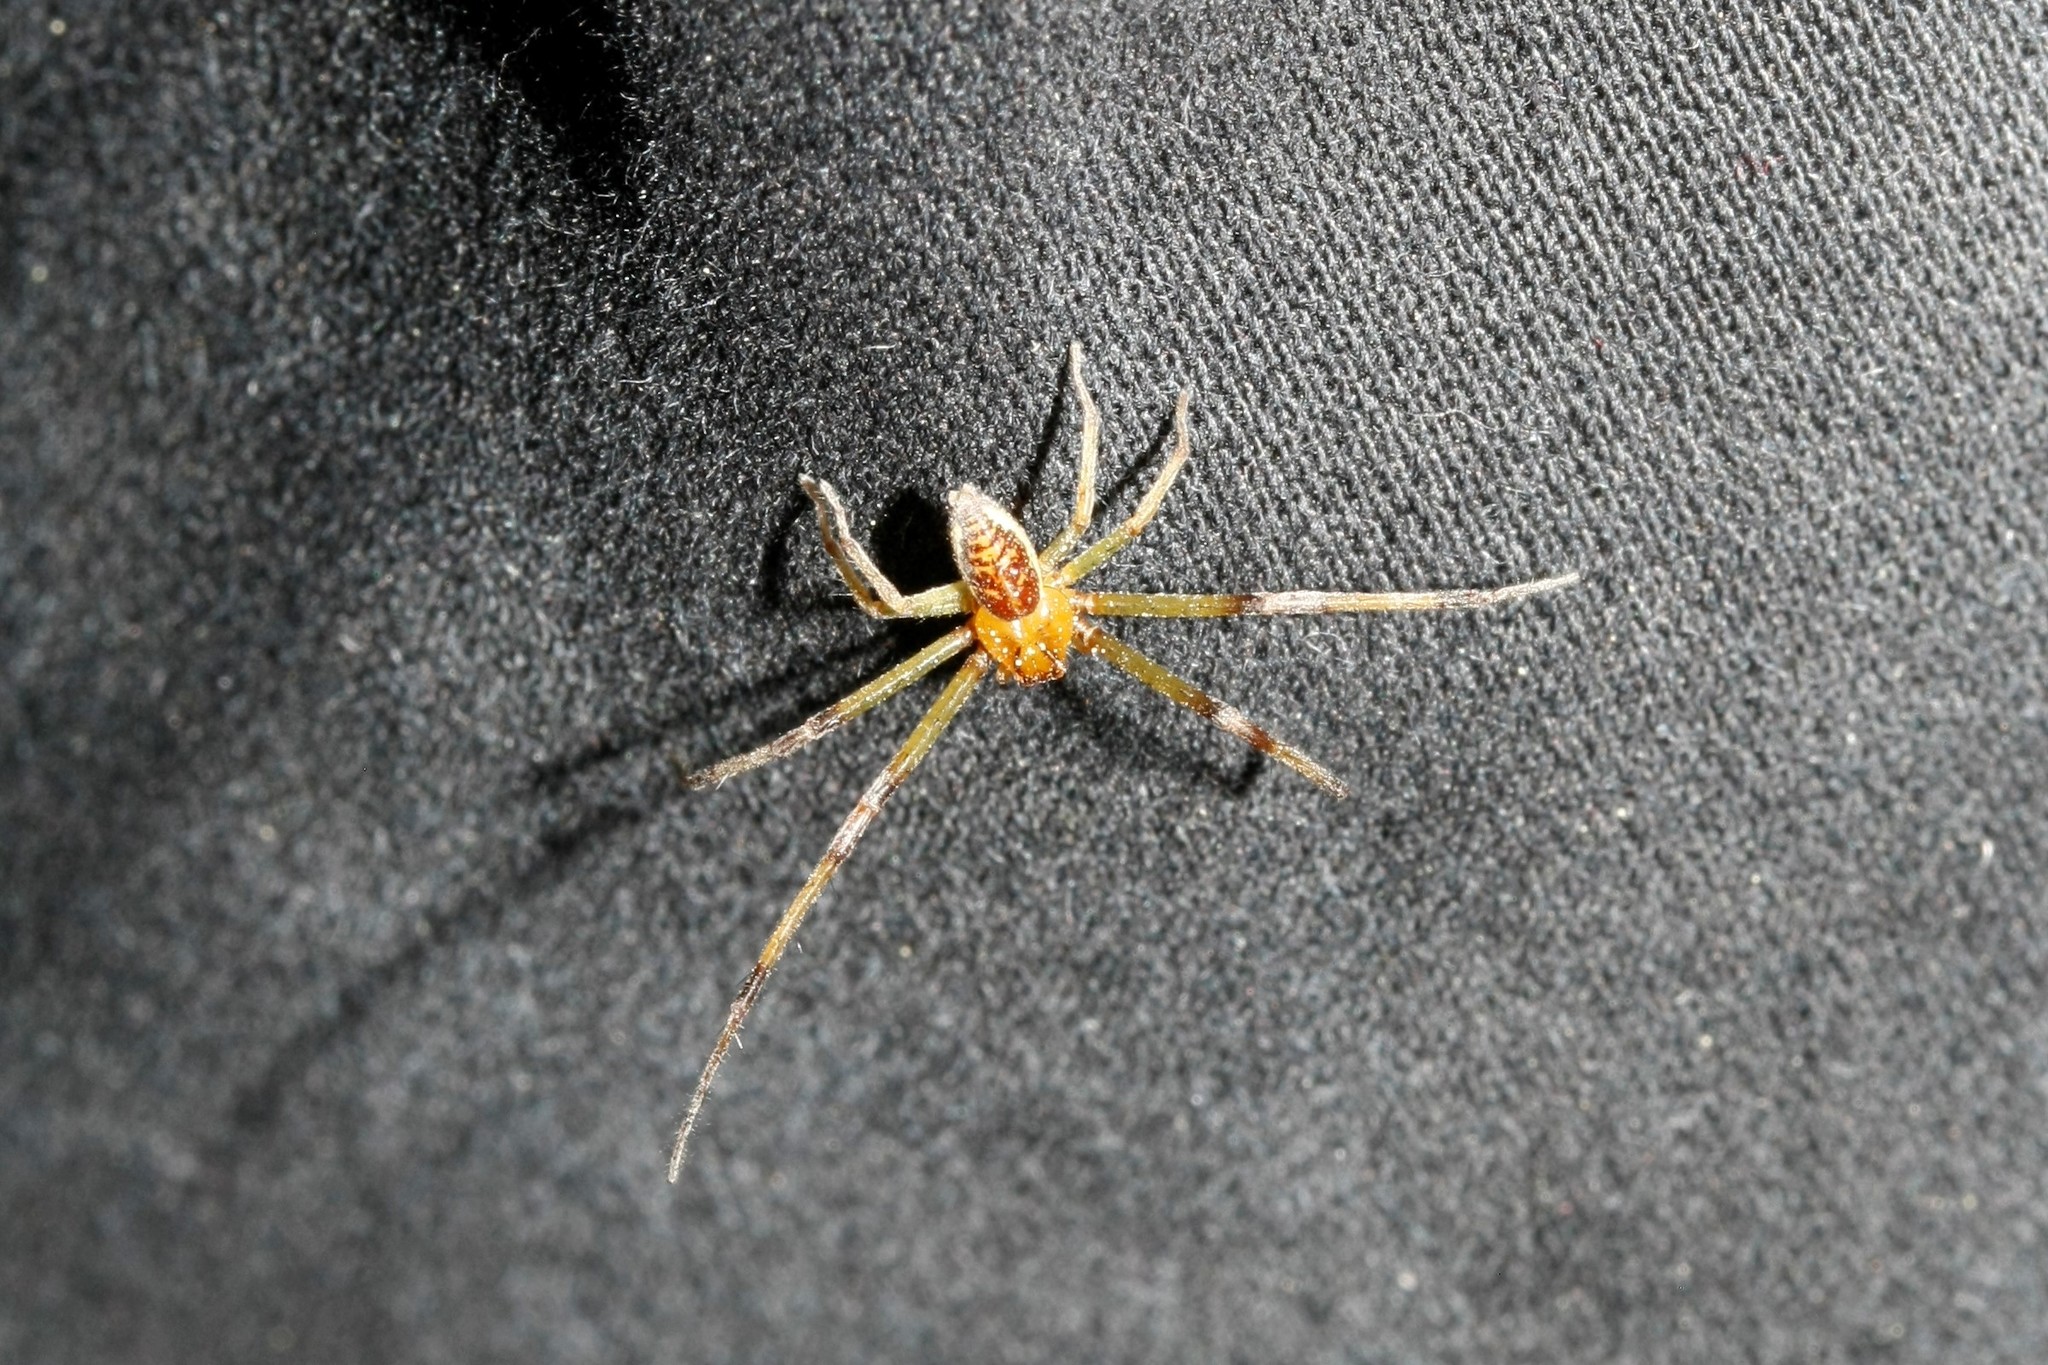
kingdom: Animalia
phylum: Arthropoda
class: Arachnida
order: Araneae
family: Thomisidae
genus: Diaea
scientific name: Diaea dorsata
